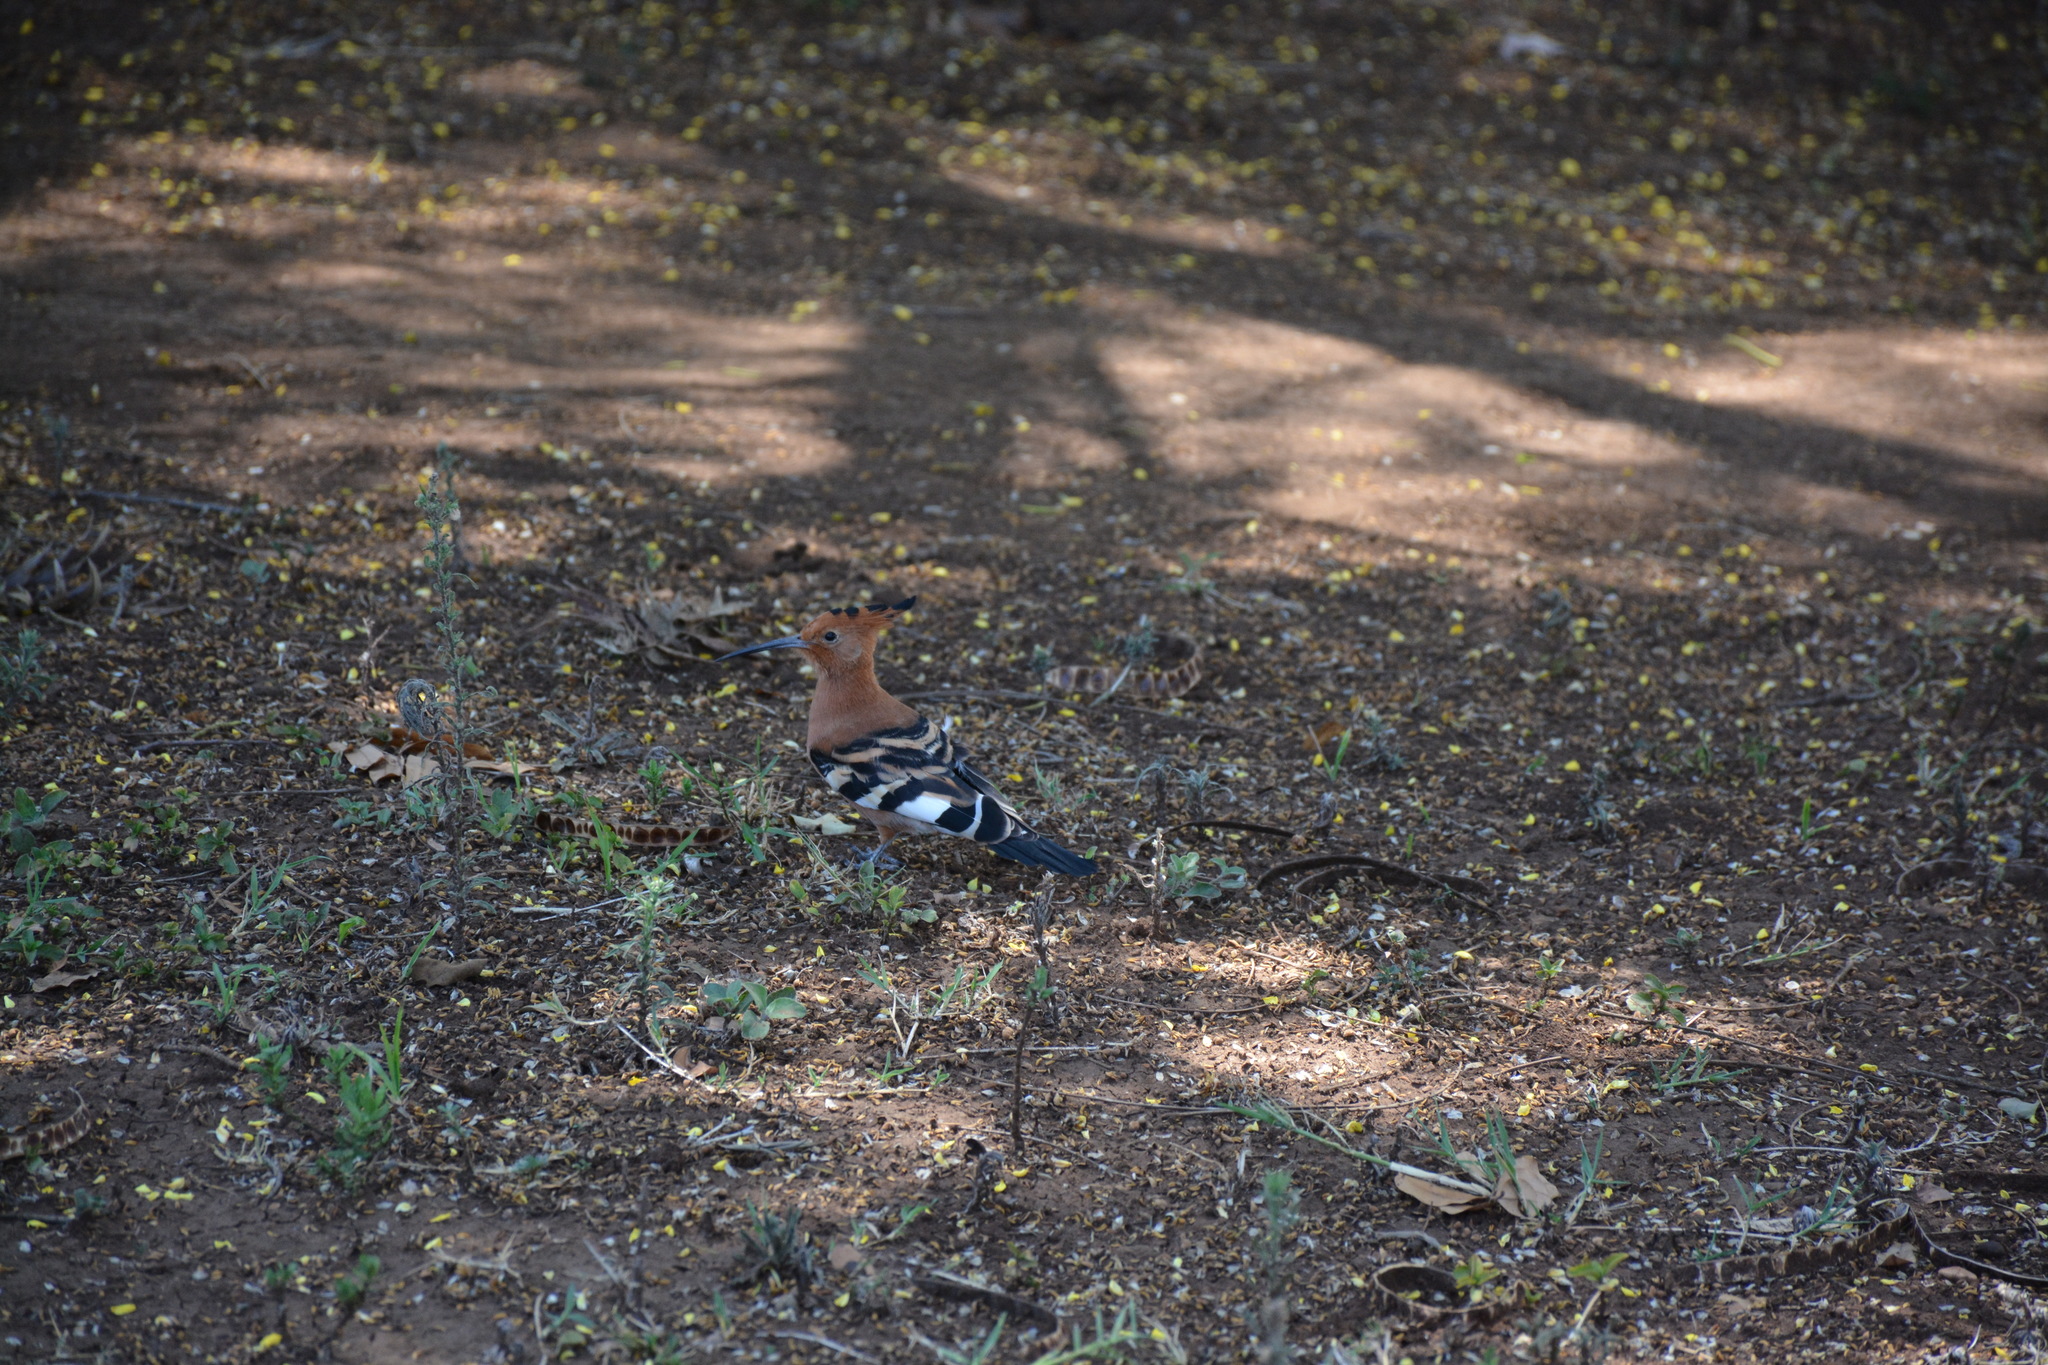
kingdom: Animalia
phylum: Chordata
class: Aves
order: Bucerotiformes
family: Upupidae
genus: Upupa
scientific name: Upupa africana
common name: African hoopoe
